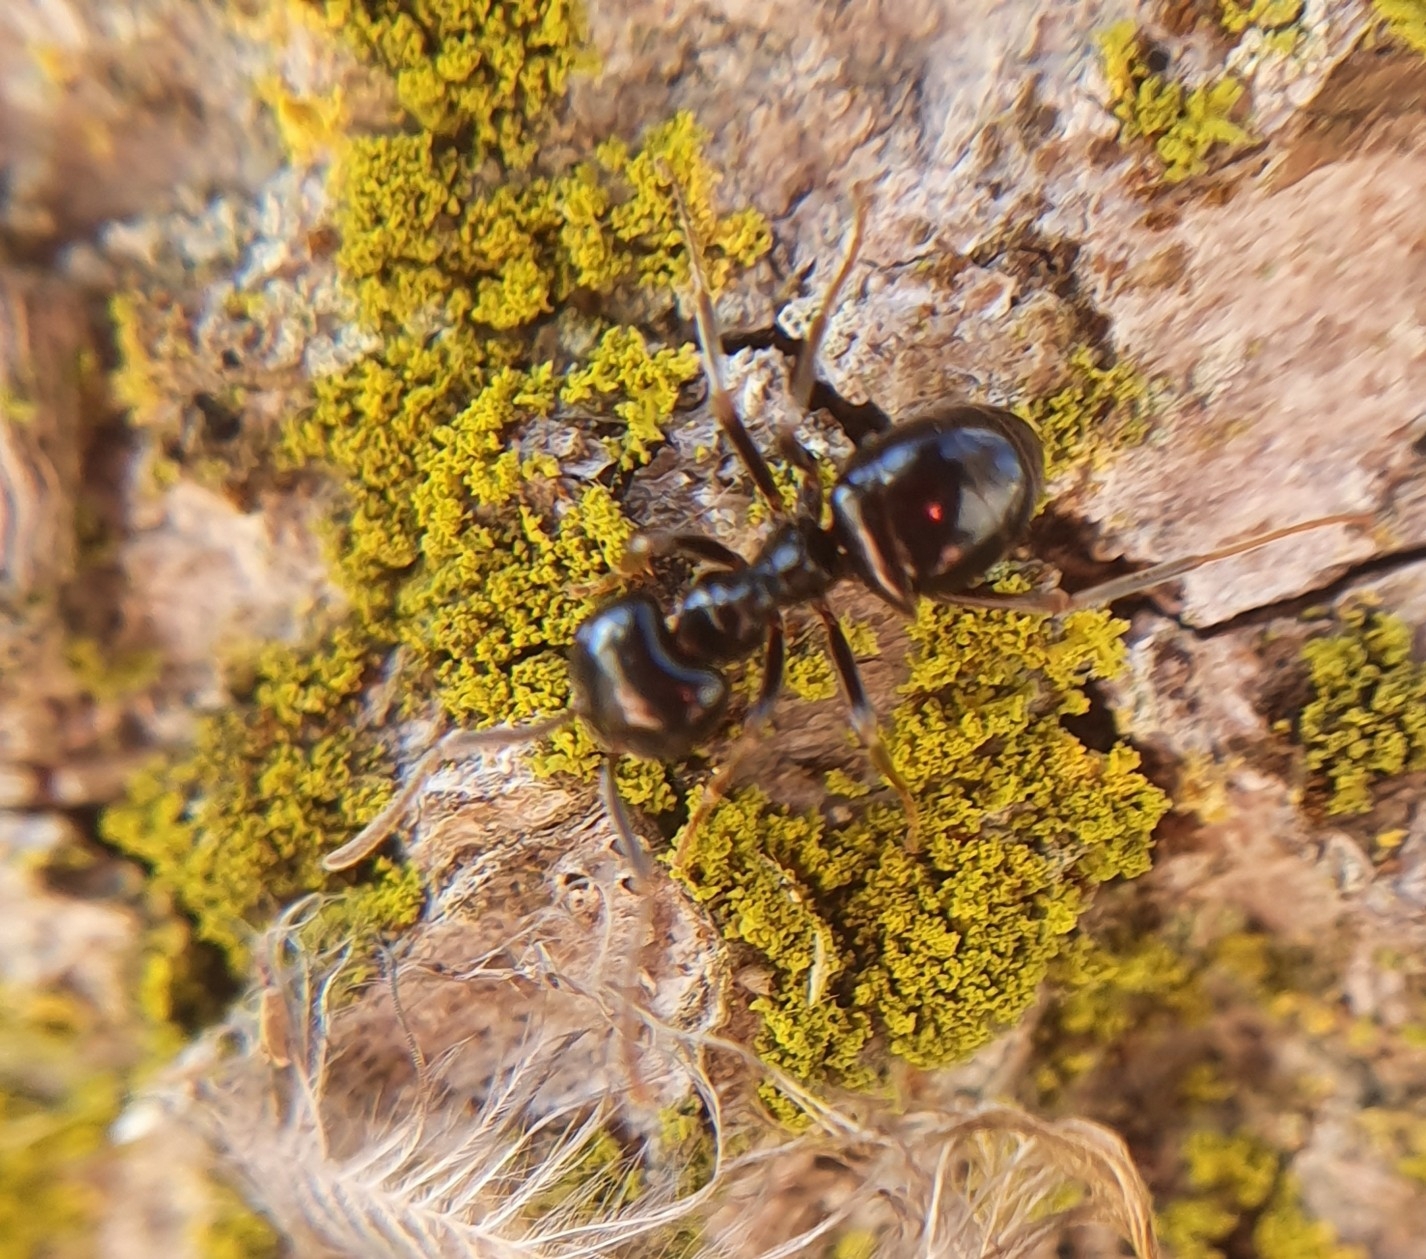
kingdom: Animalia
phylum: Arthropoda
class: Insecta
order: Hymenoptera
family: Formicidae
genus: Lasius
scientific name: Lasius fuliginosus
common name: Jet ant
